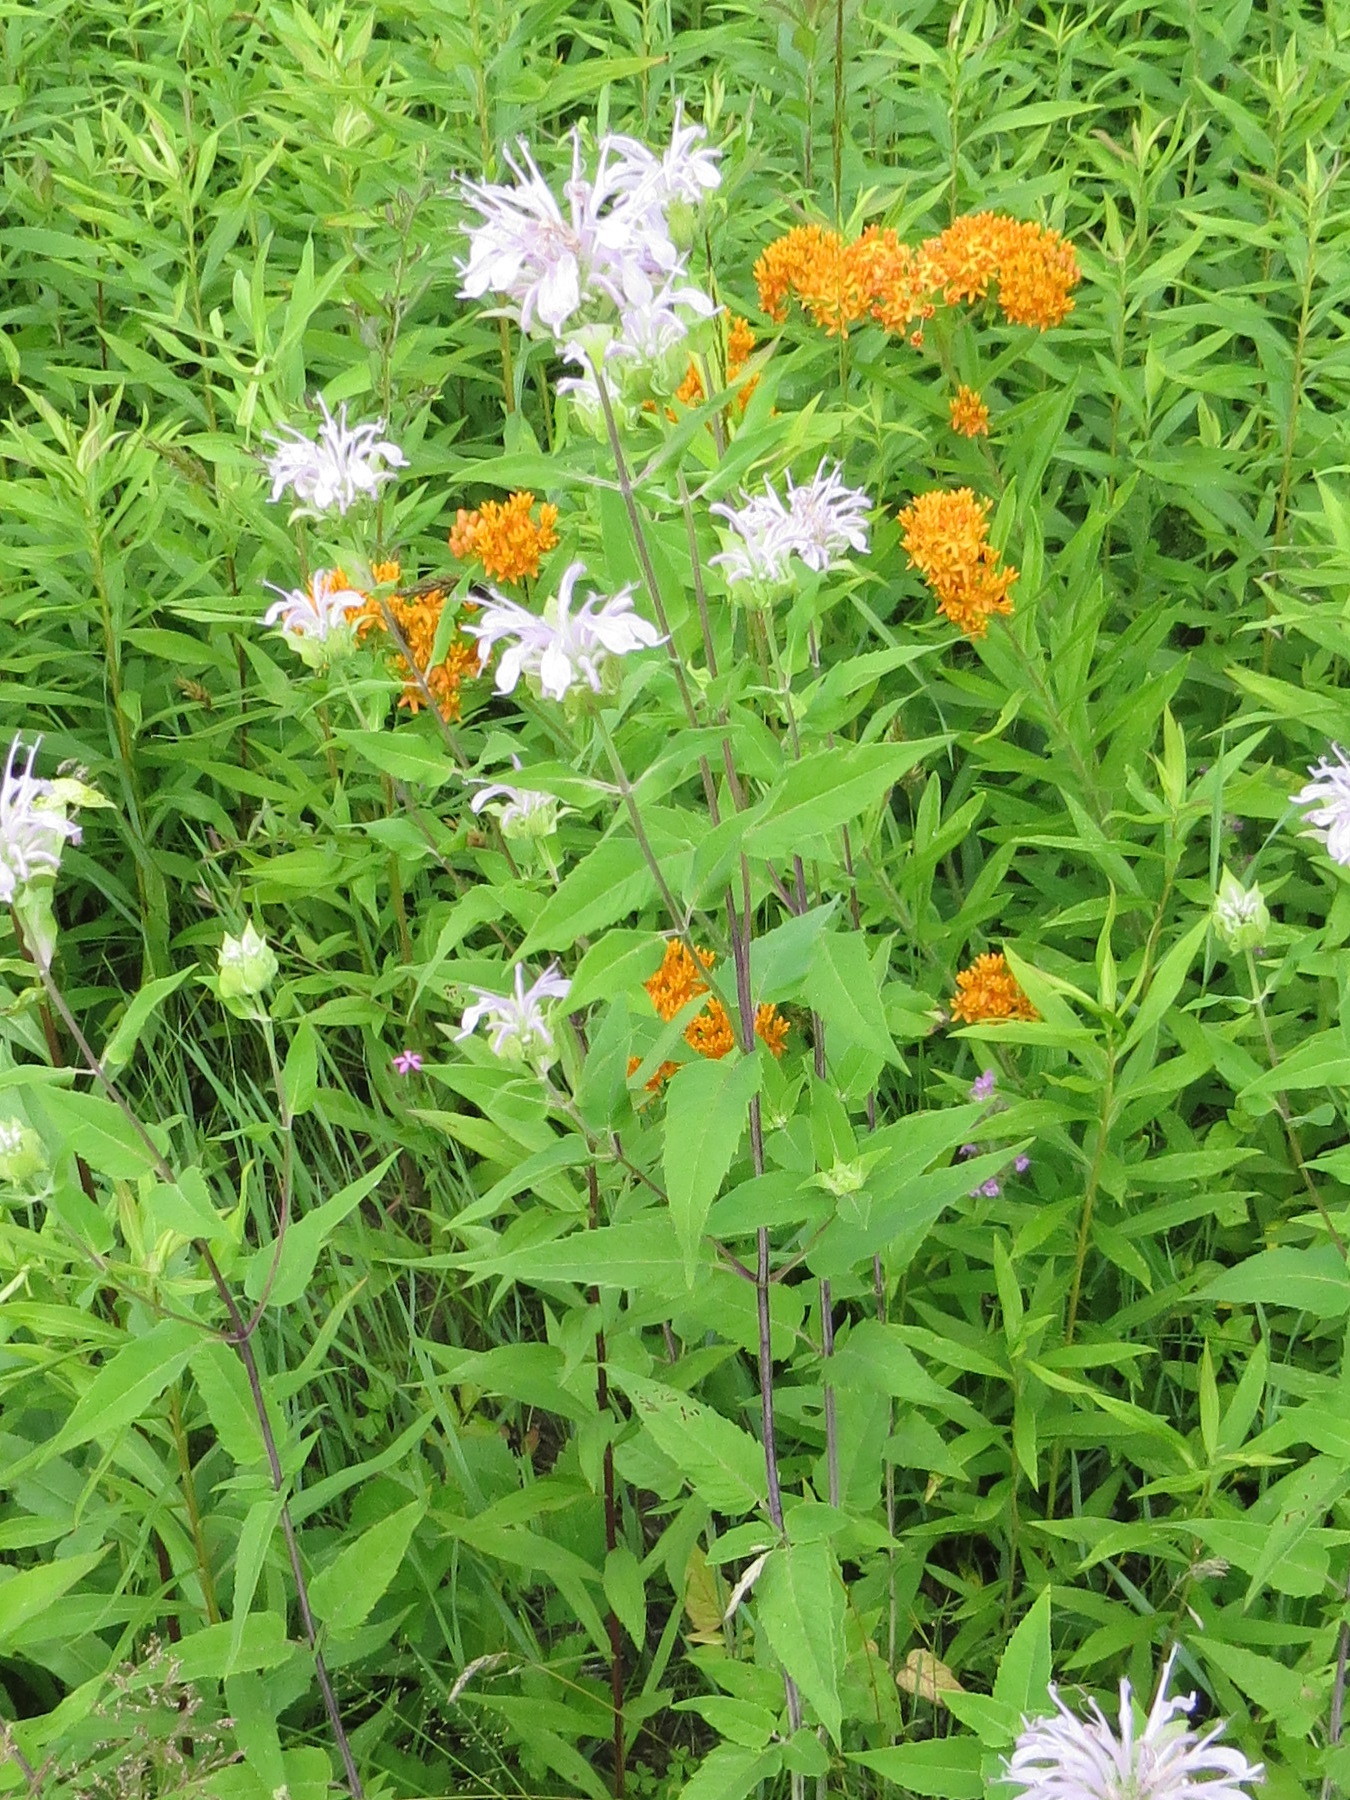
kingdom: Plantae
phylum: Tracheophyta
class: Magnoliopsida
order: Lamiales
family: Lamiaceae
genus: Monarda
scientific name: Monarda fistulosa
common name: Purple beebalm
